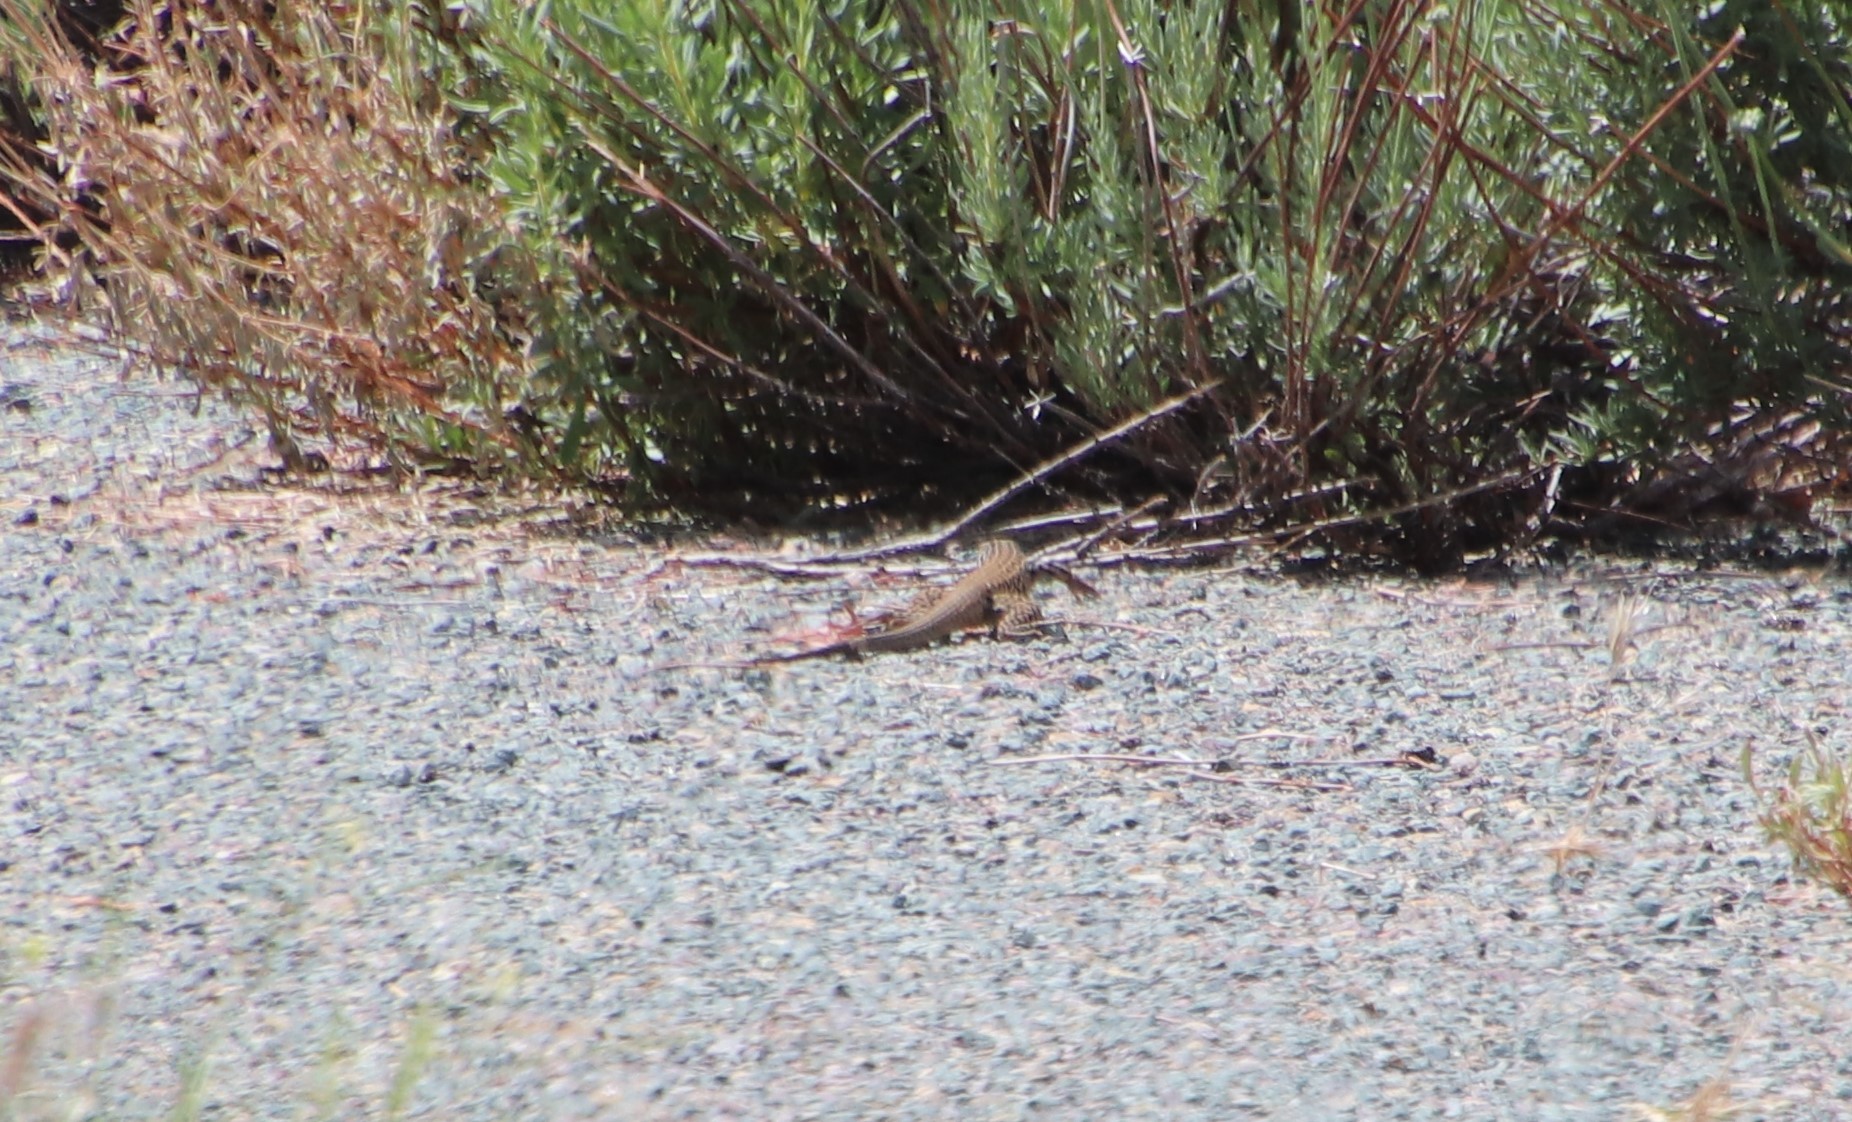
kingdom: Animalia
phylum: Chordata
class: Squamata
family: Teiidae
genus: Aspidoscelis
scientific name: Aspidoscelis tigris
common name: Tiger whiptail
